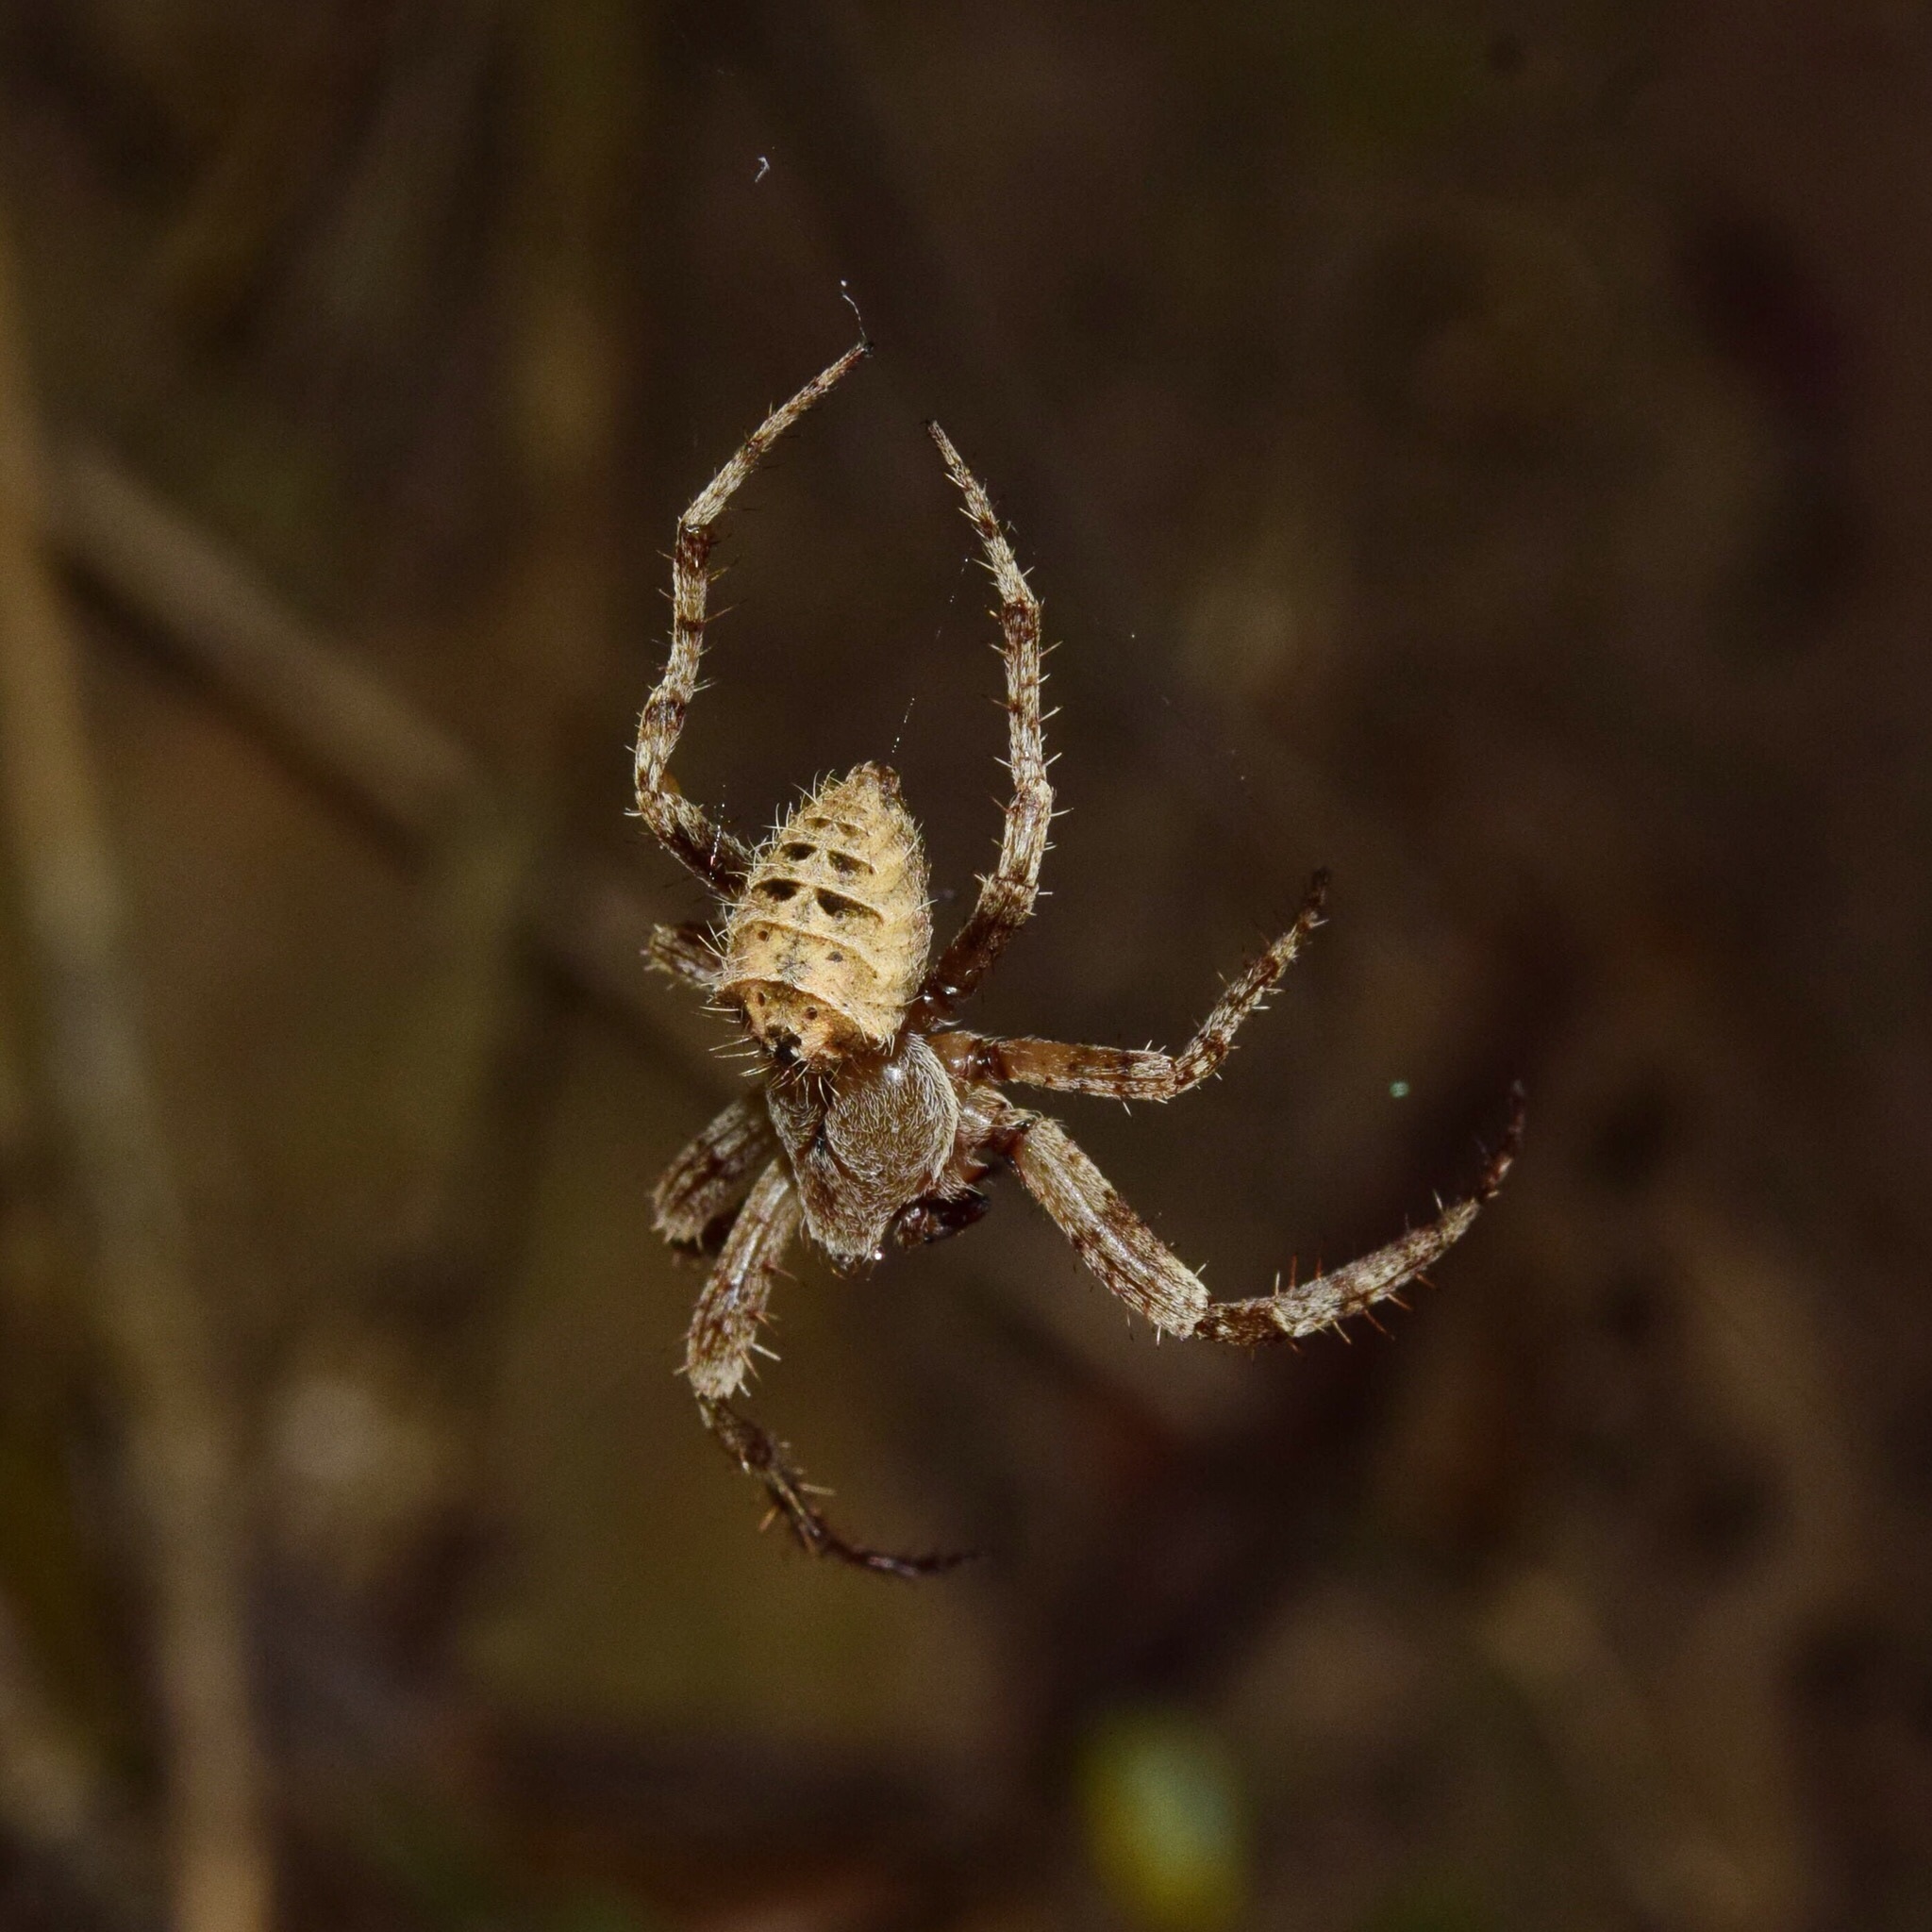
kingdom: Animalia
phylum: Arthropoda
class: Arachnida
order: Araneae
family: Araneidae
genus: Pararaneus
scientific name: Pararaneus perforatus
